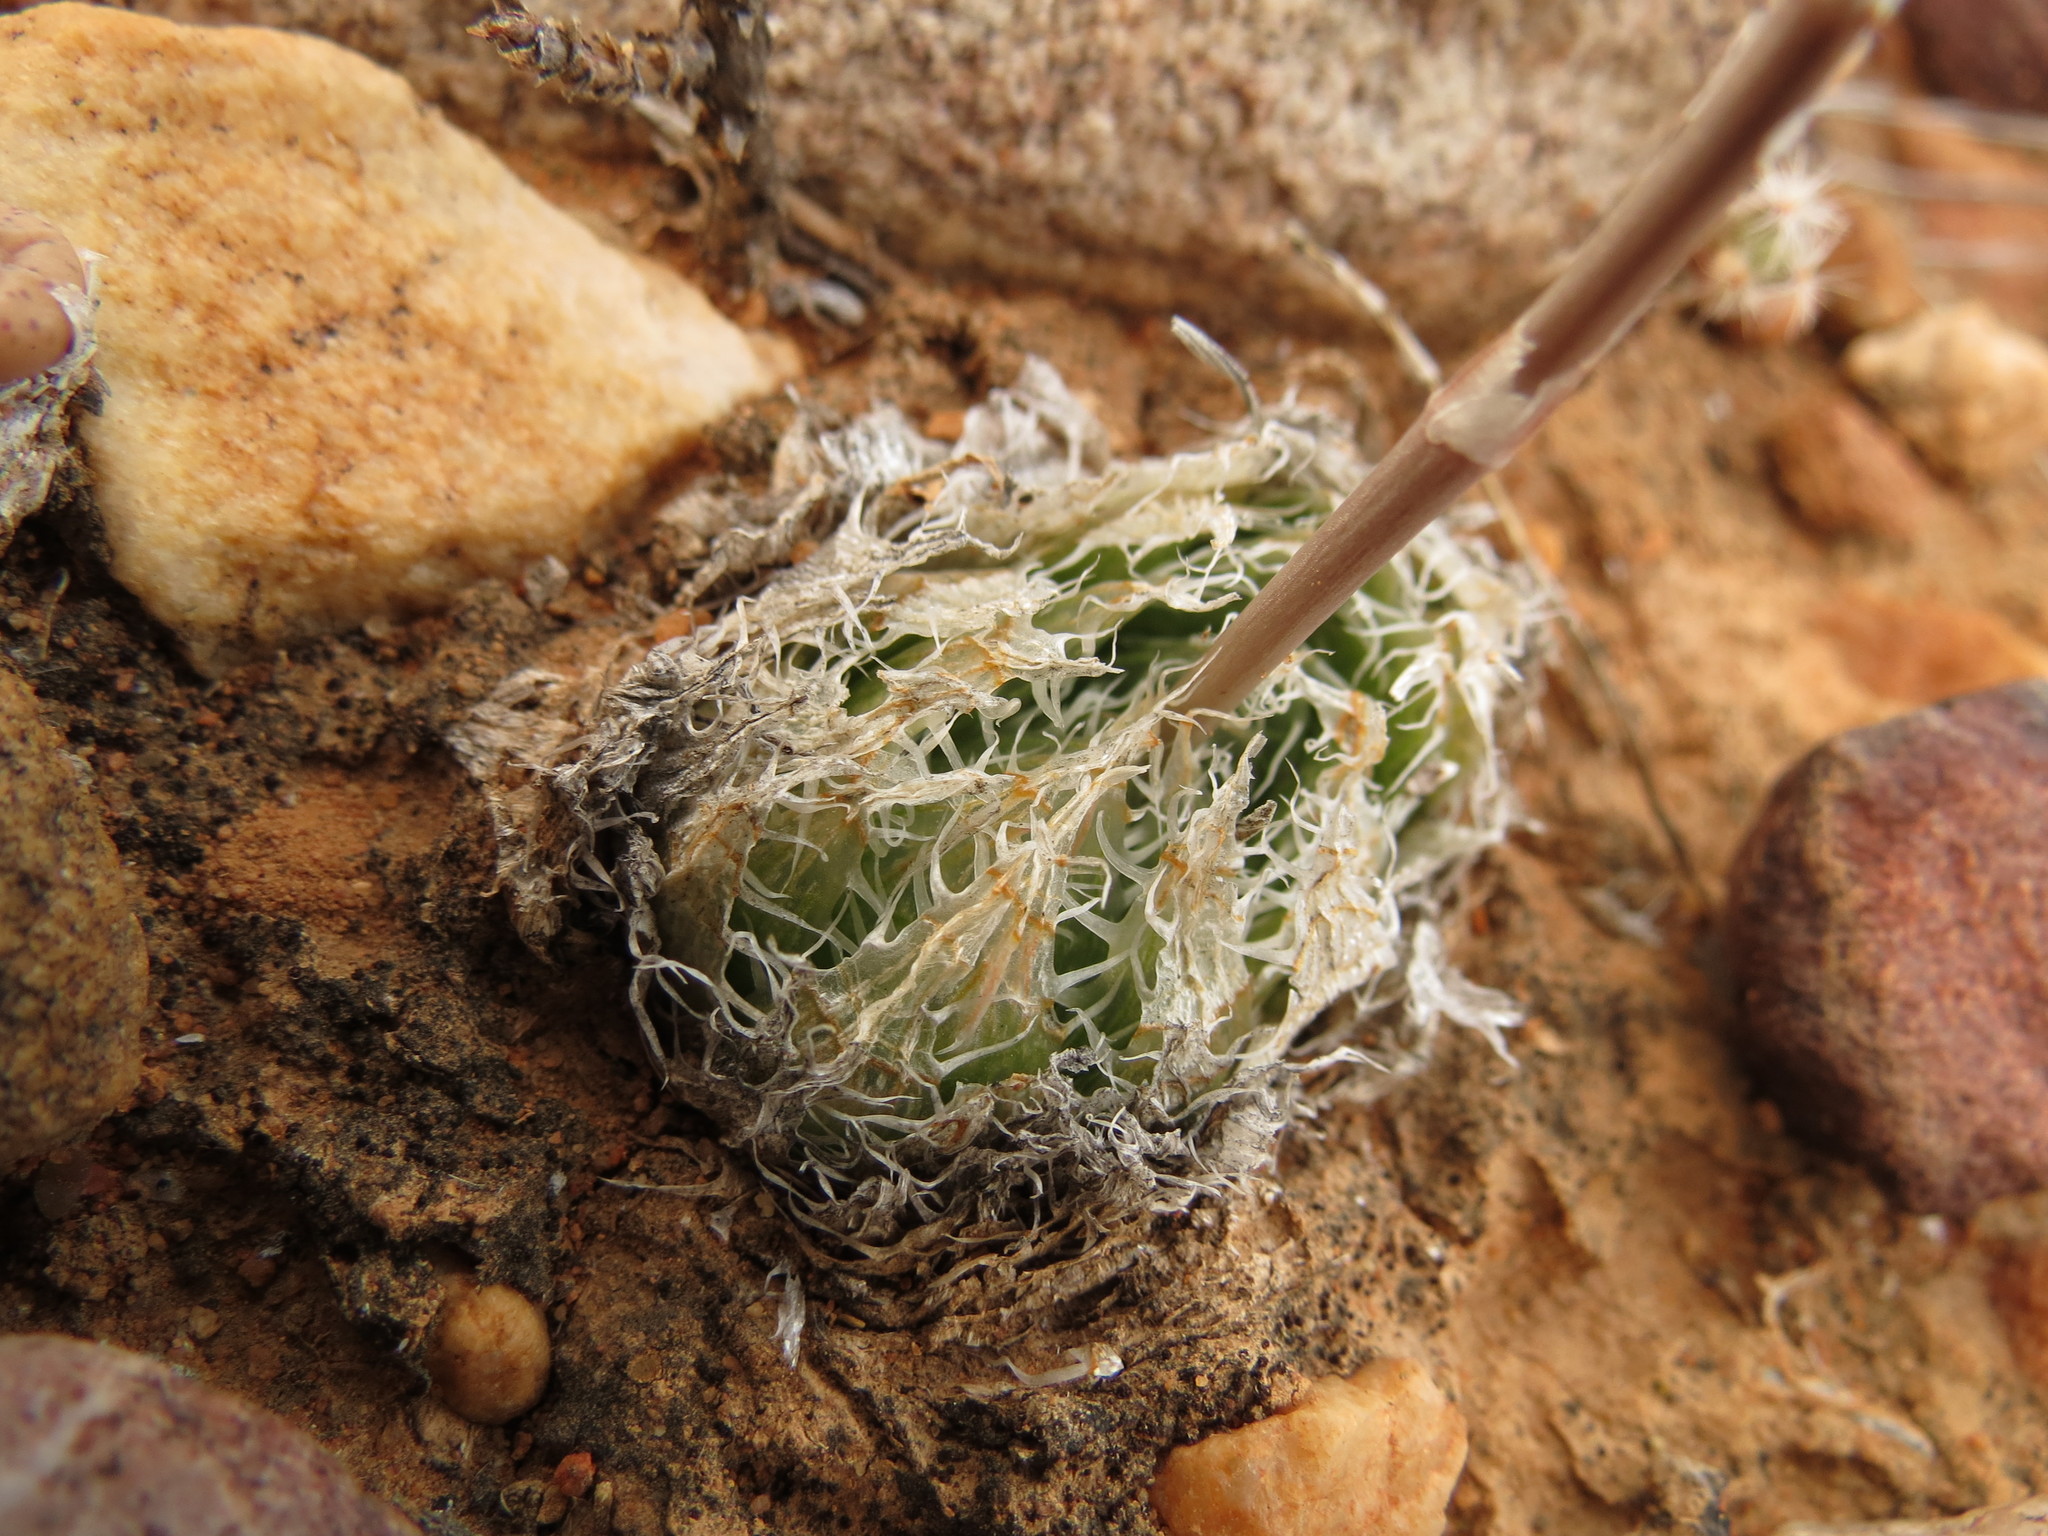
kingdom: Plantae
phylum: Tracheophyta
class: Liliopsida
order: Asparagales
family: Asphodelaceae
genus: Haworthia
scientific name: Haworthia decipiens
